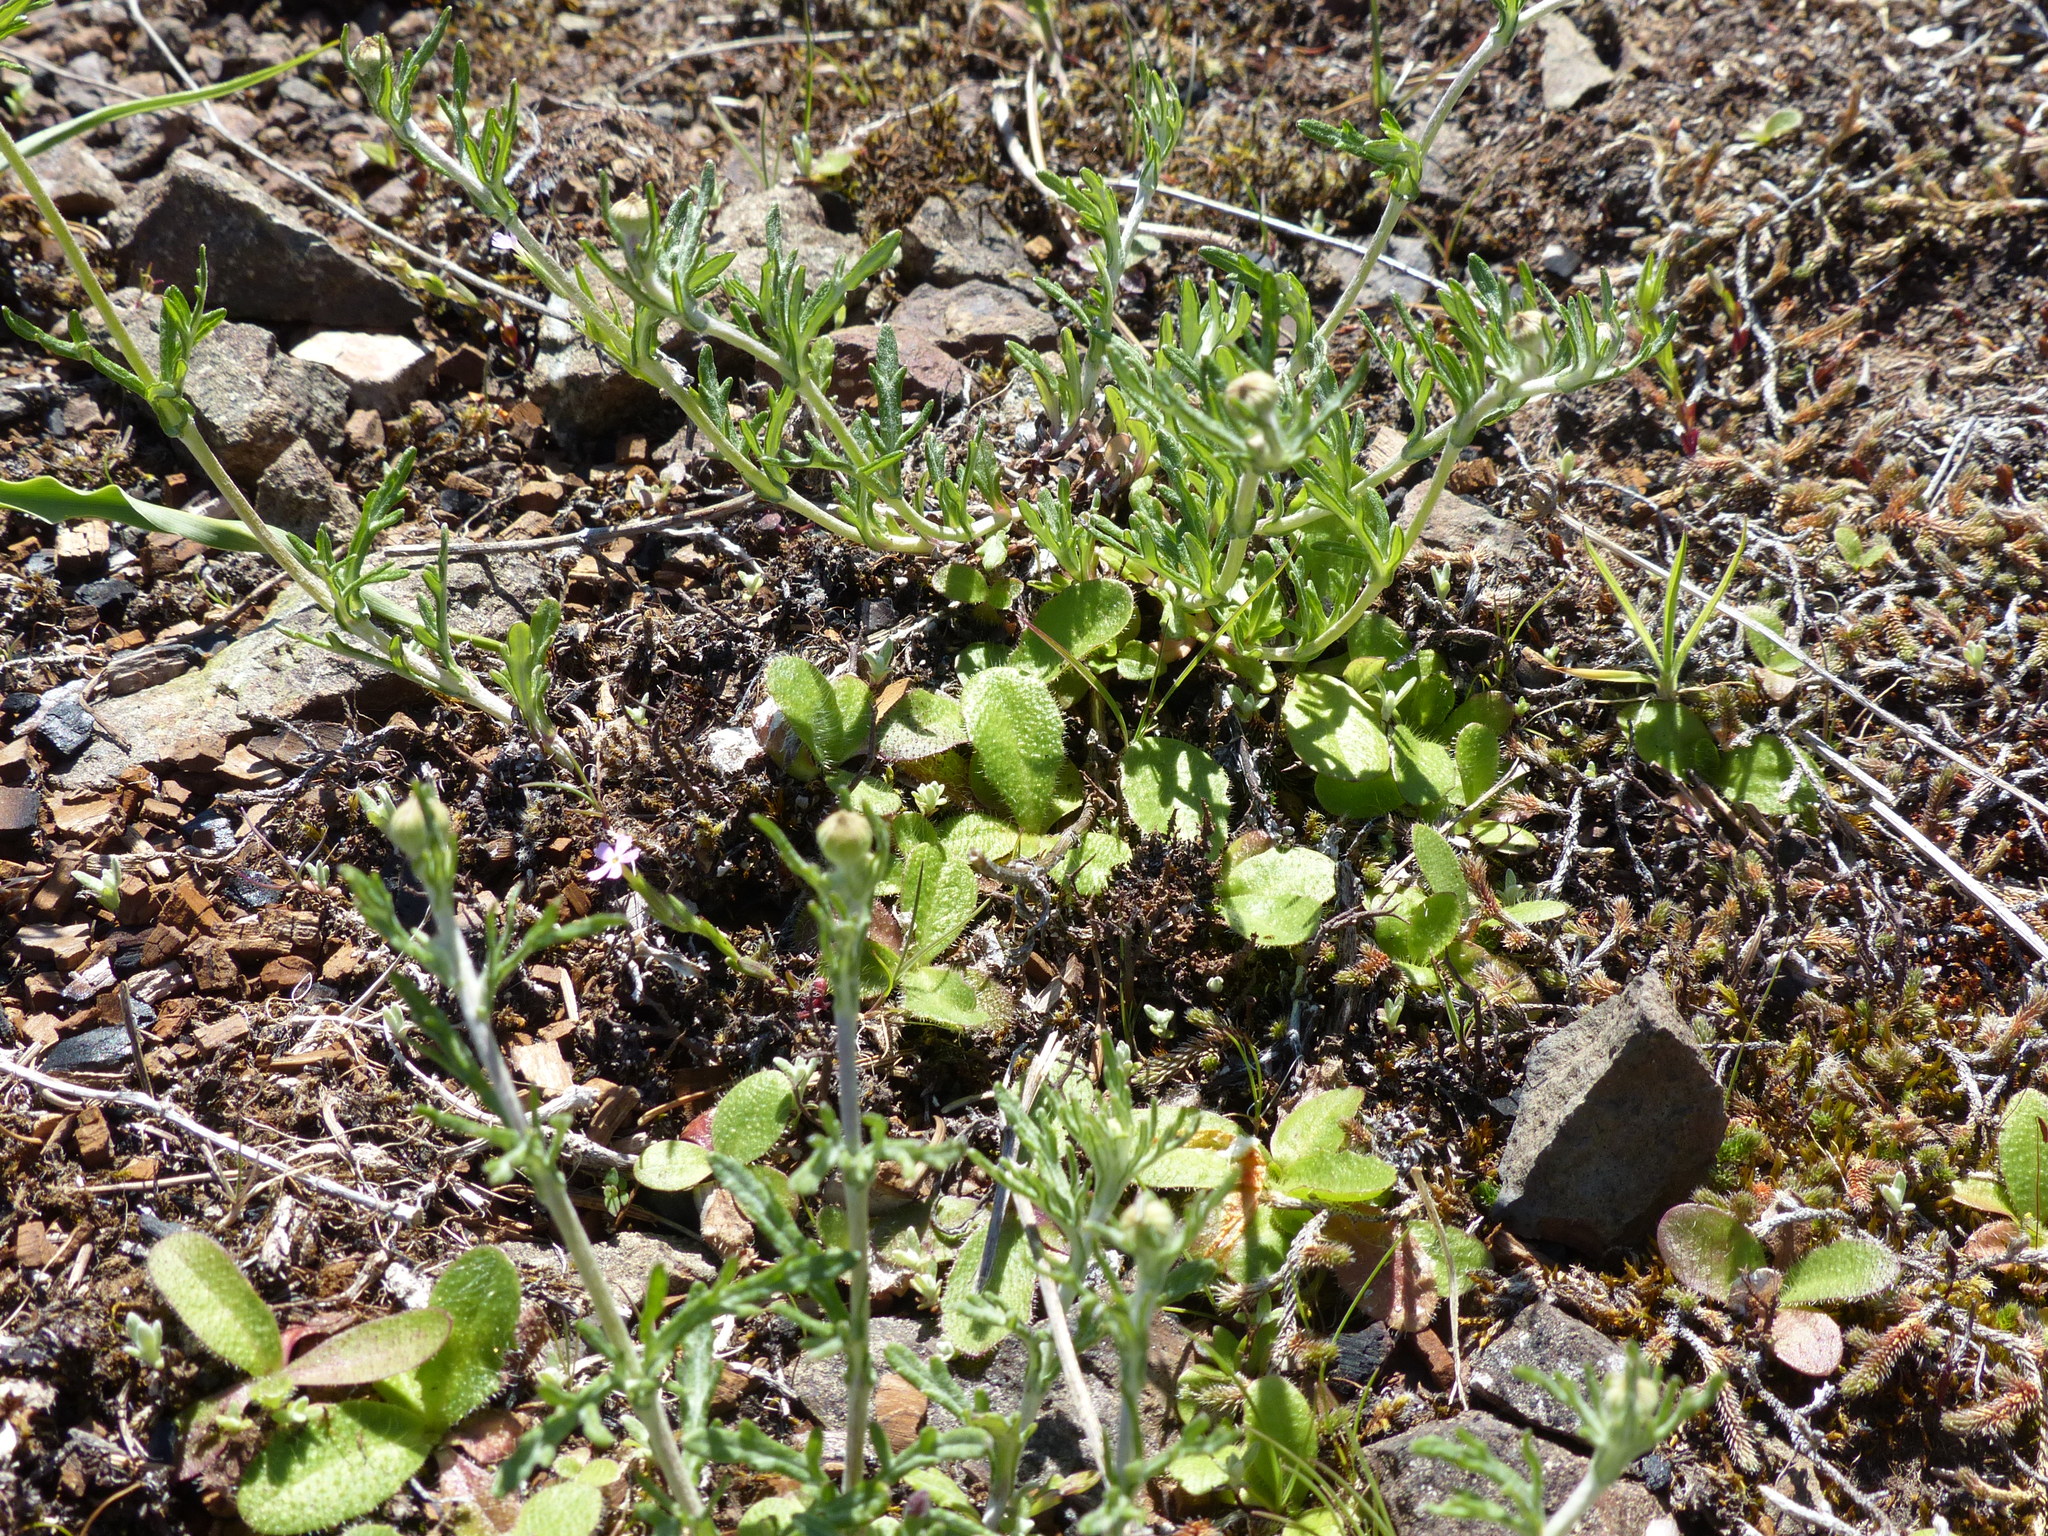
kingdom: Plantae
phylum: Tracheophyta
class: Magnoliopsida
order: Asterales
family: Asteraceae
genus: Eriophyllum
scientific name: Eriophyllum lanatum
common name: Common woolly-sunflower
